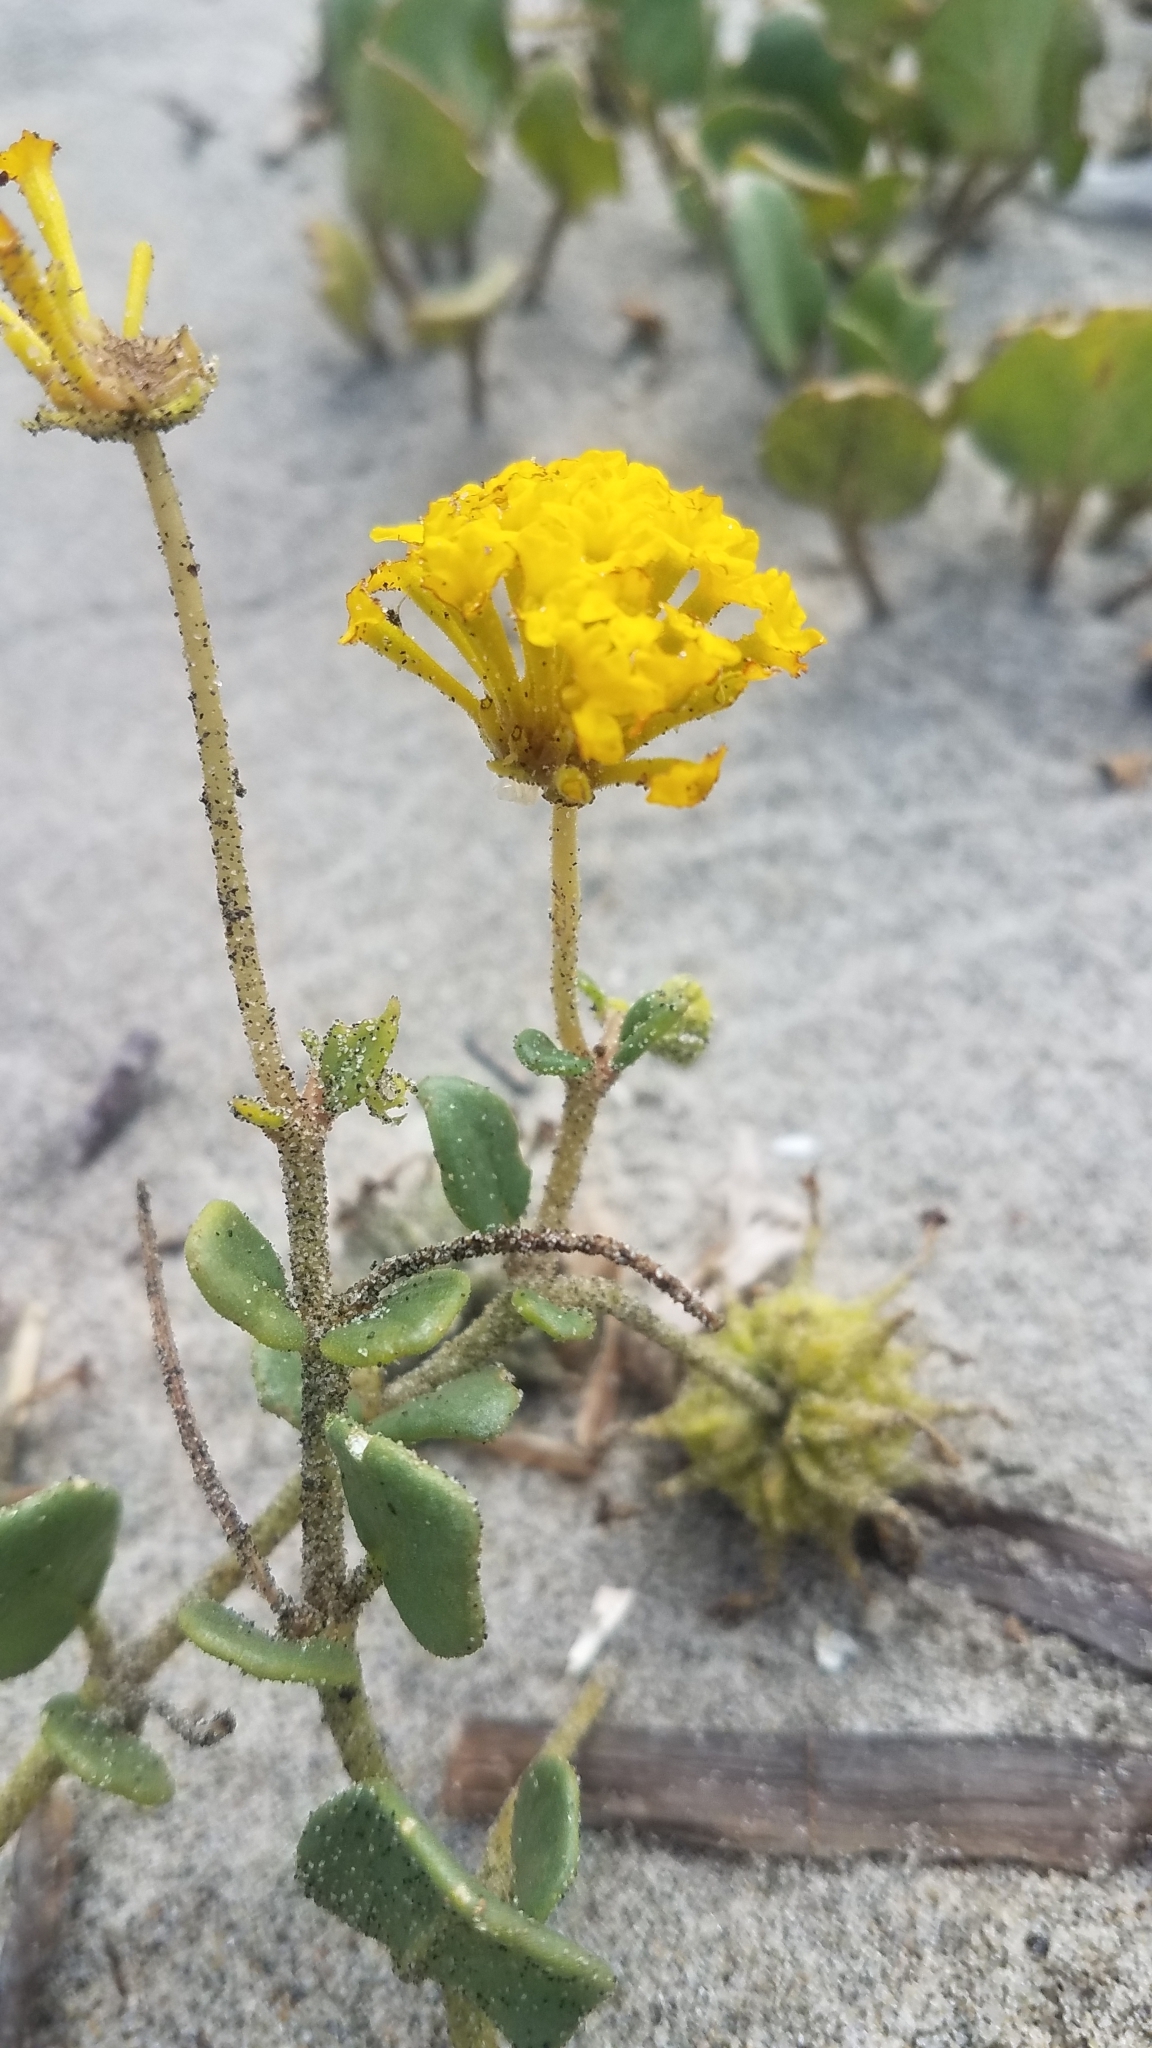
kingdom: Plantae
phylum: Tracheophyta
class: Magnoliopsida
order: Caryophyllales
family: Nyctaginaceae
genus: Abronia
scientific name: Abronia latifolia
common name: Yellow sand-verbena
